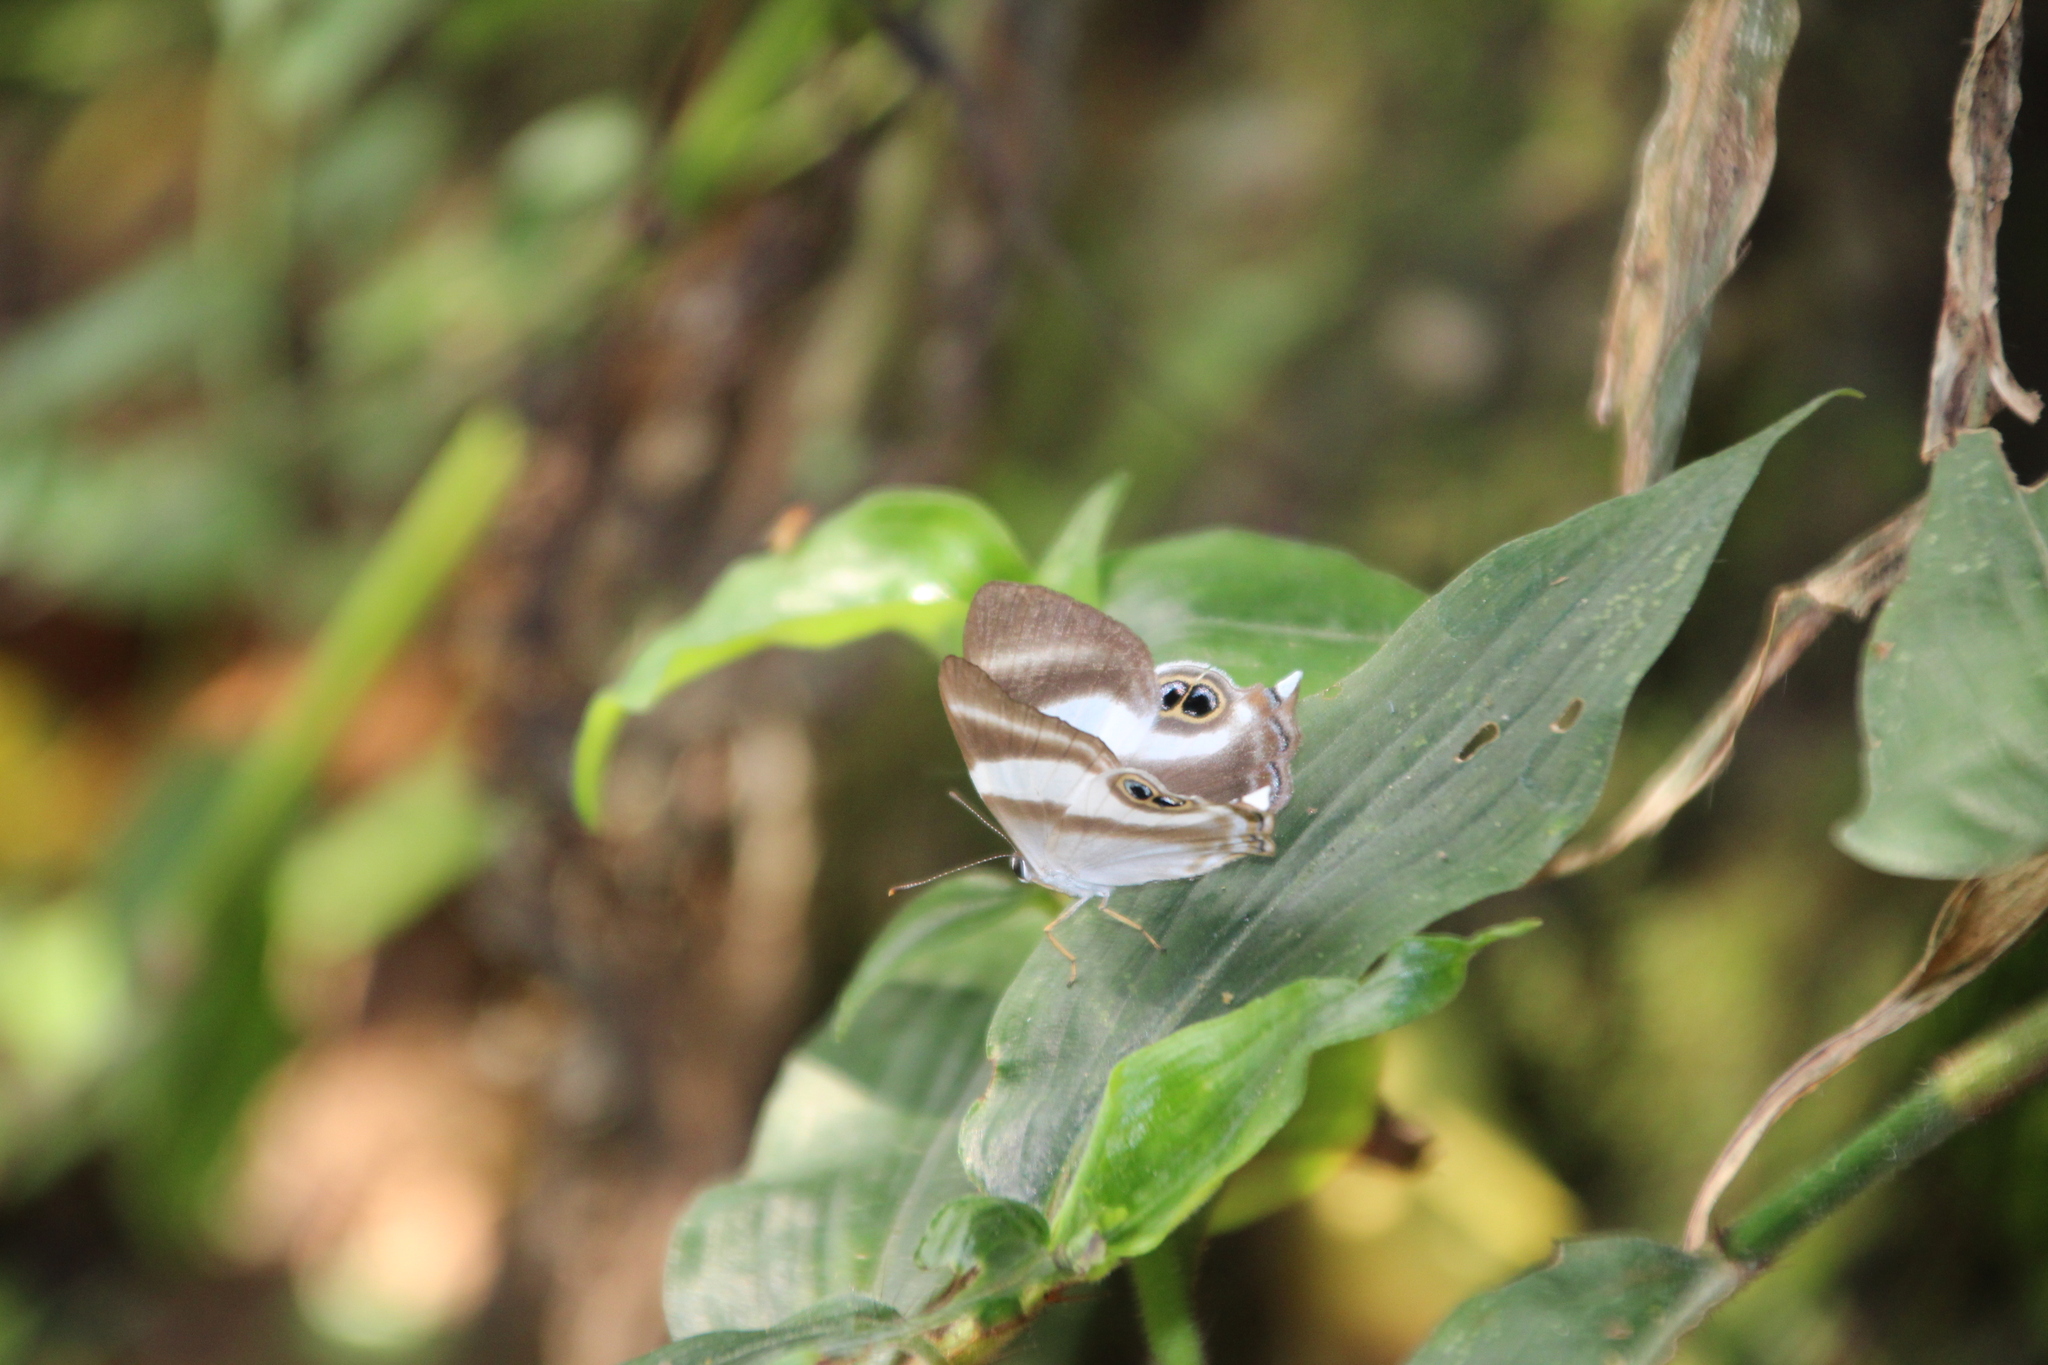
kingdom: Animalia
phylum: Arthropoda
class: Insecta
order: Lepidoptera
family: Riodinidae
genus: Afriodinia
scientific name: Afriodinia
